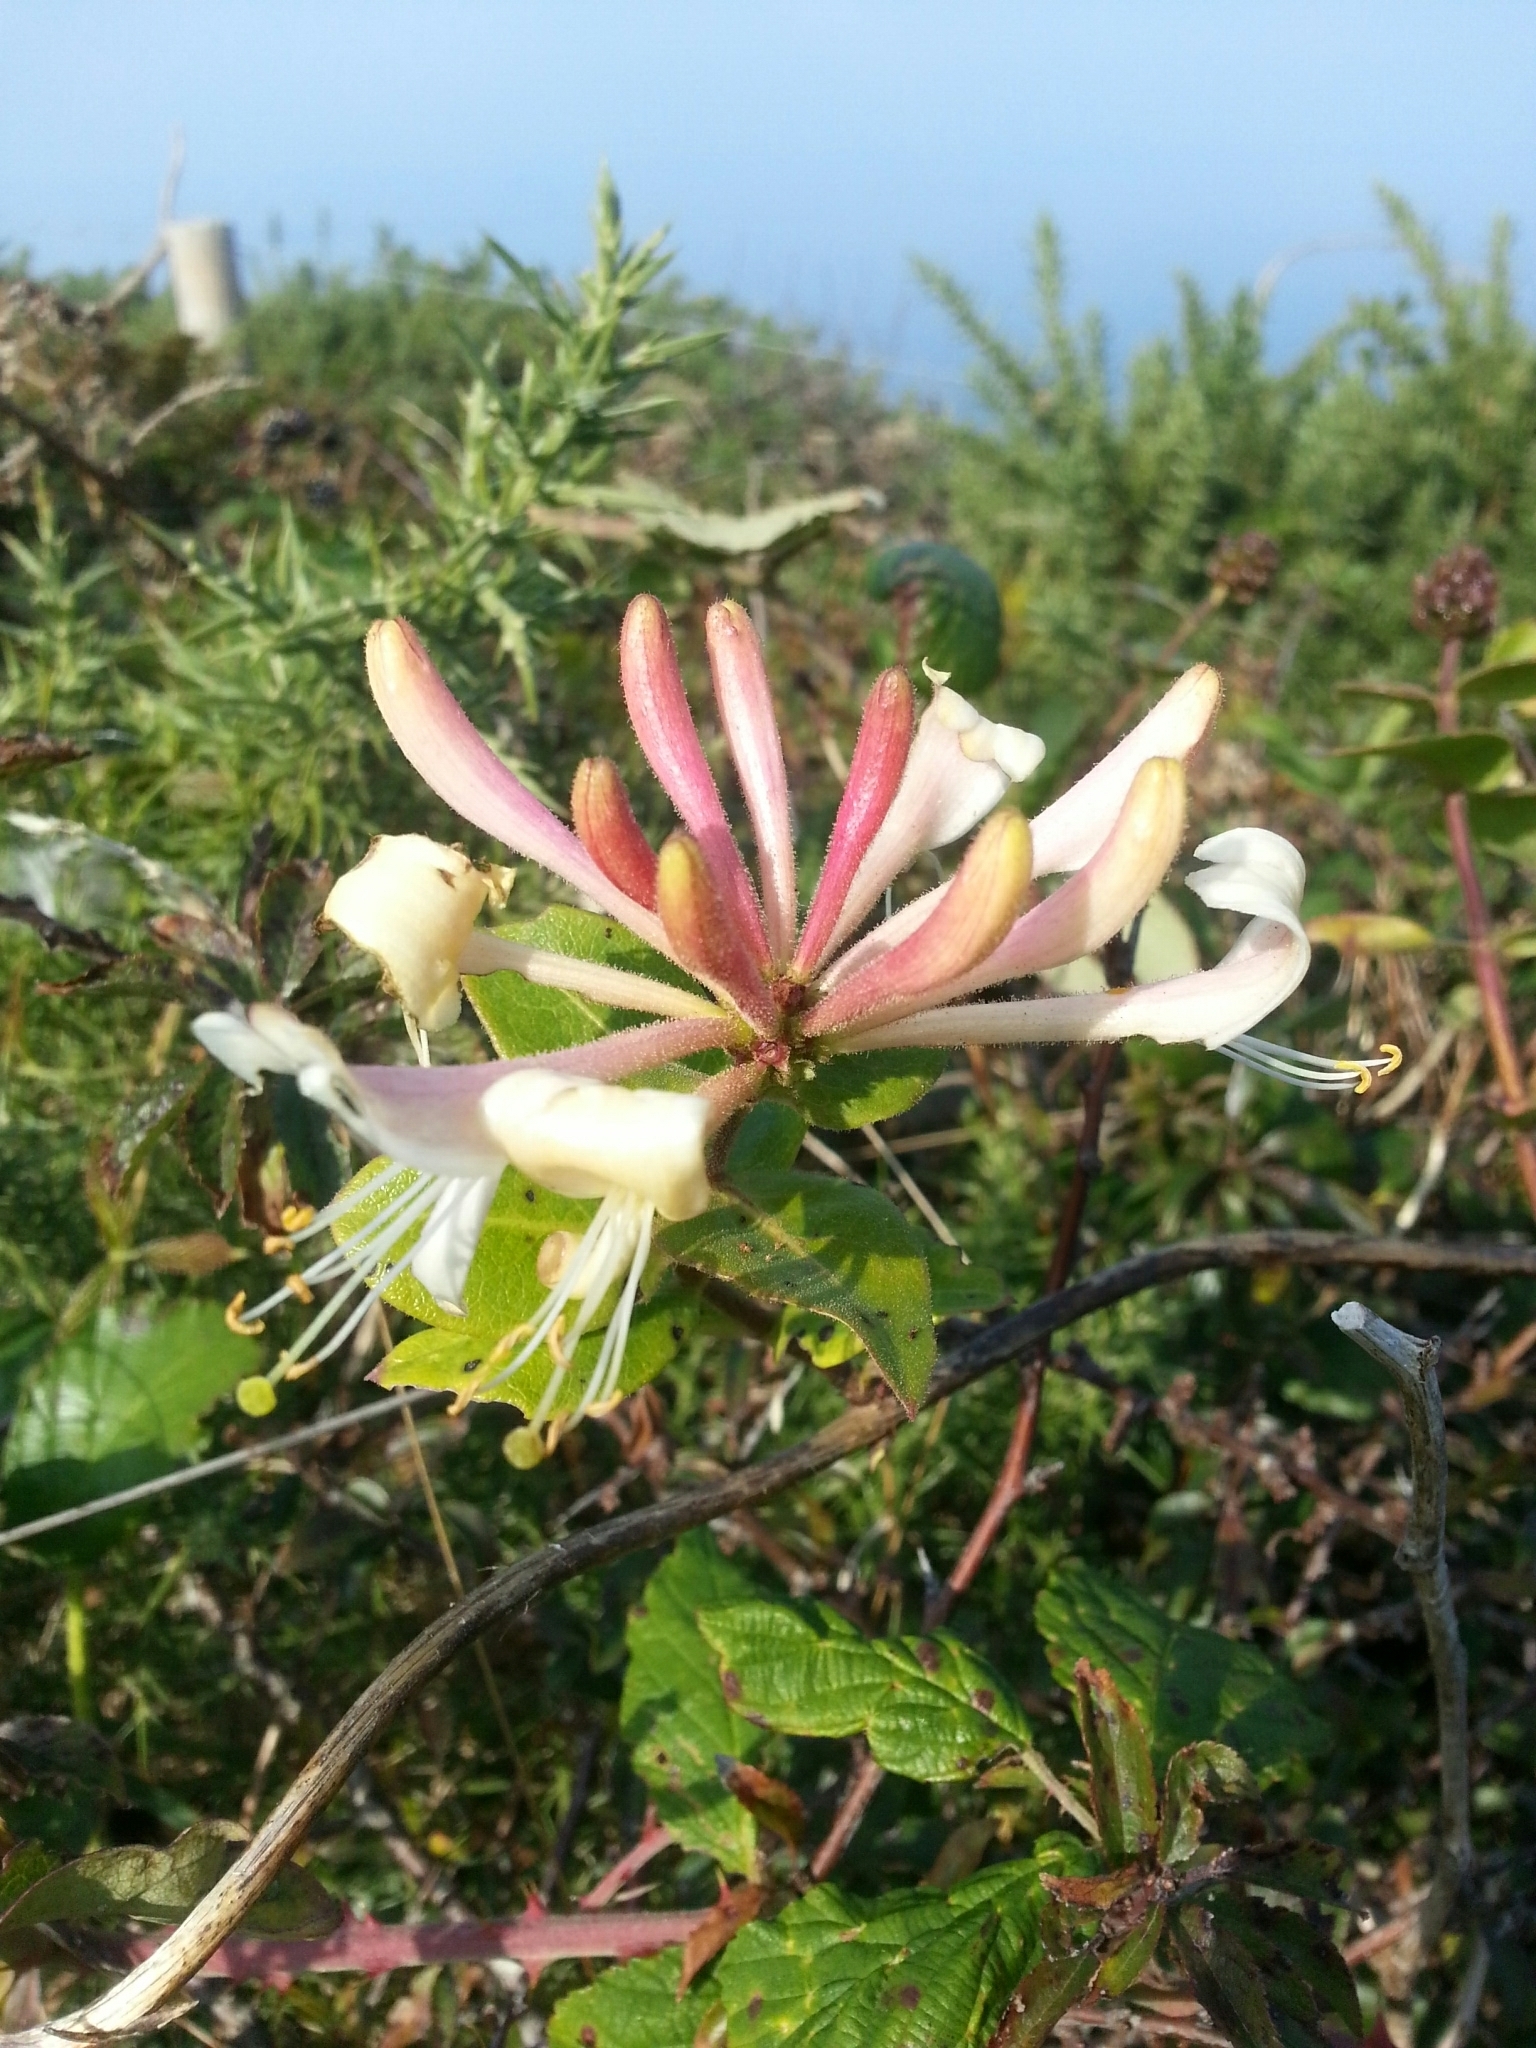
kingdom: Plantae
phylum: Tracheophyta
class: Magnoliopsida
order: Dipsacales
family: Caprifoliaceae
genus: Lonicera
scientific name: Lonicera periclymenum
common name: European honeysuckle
